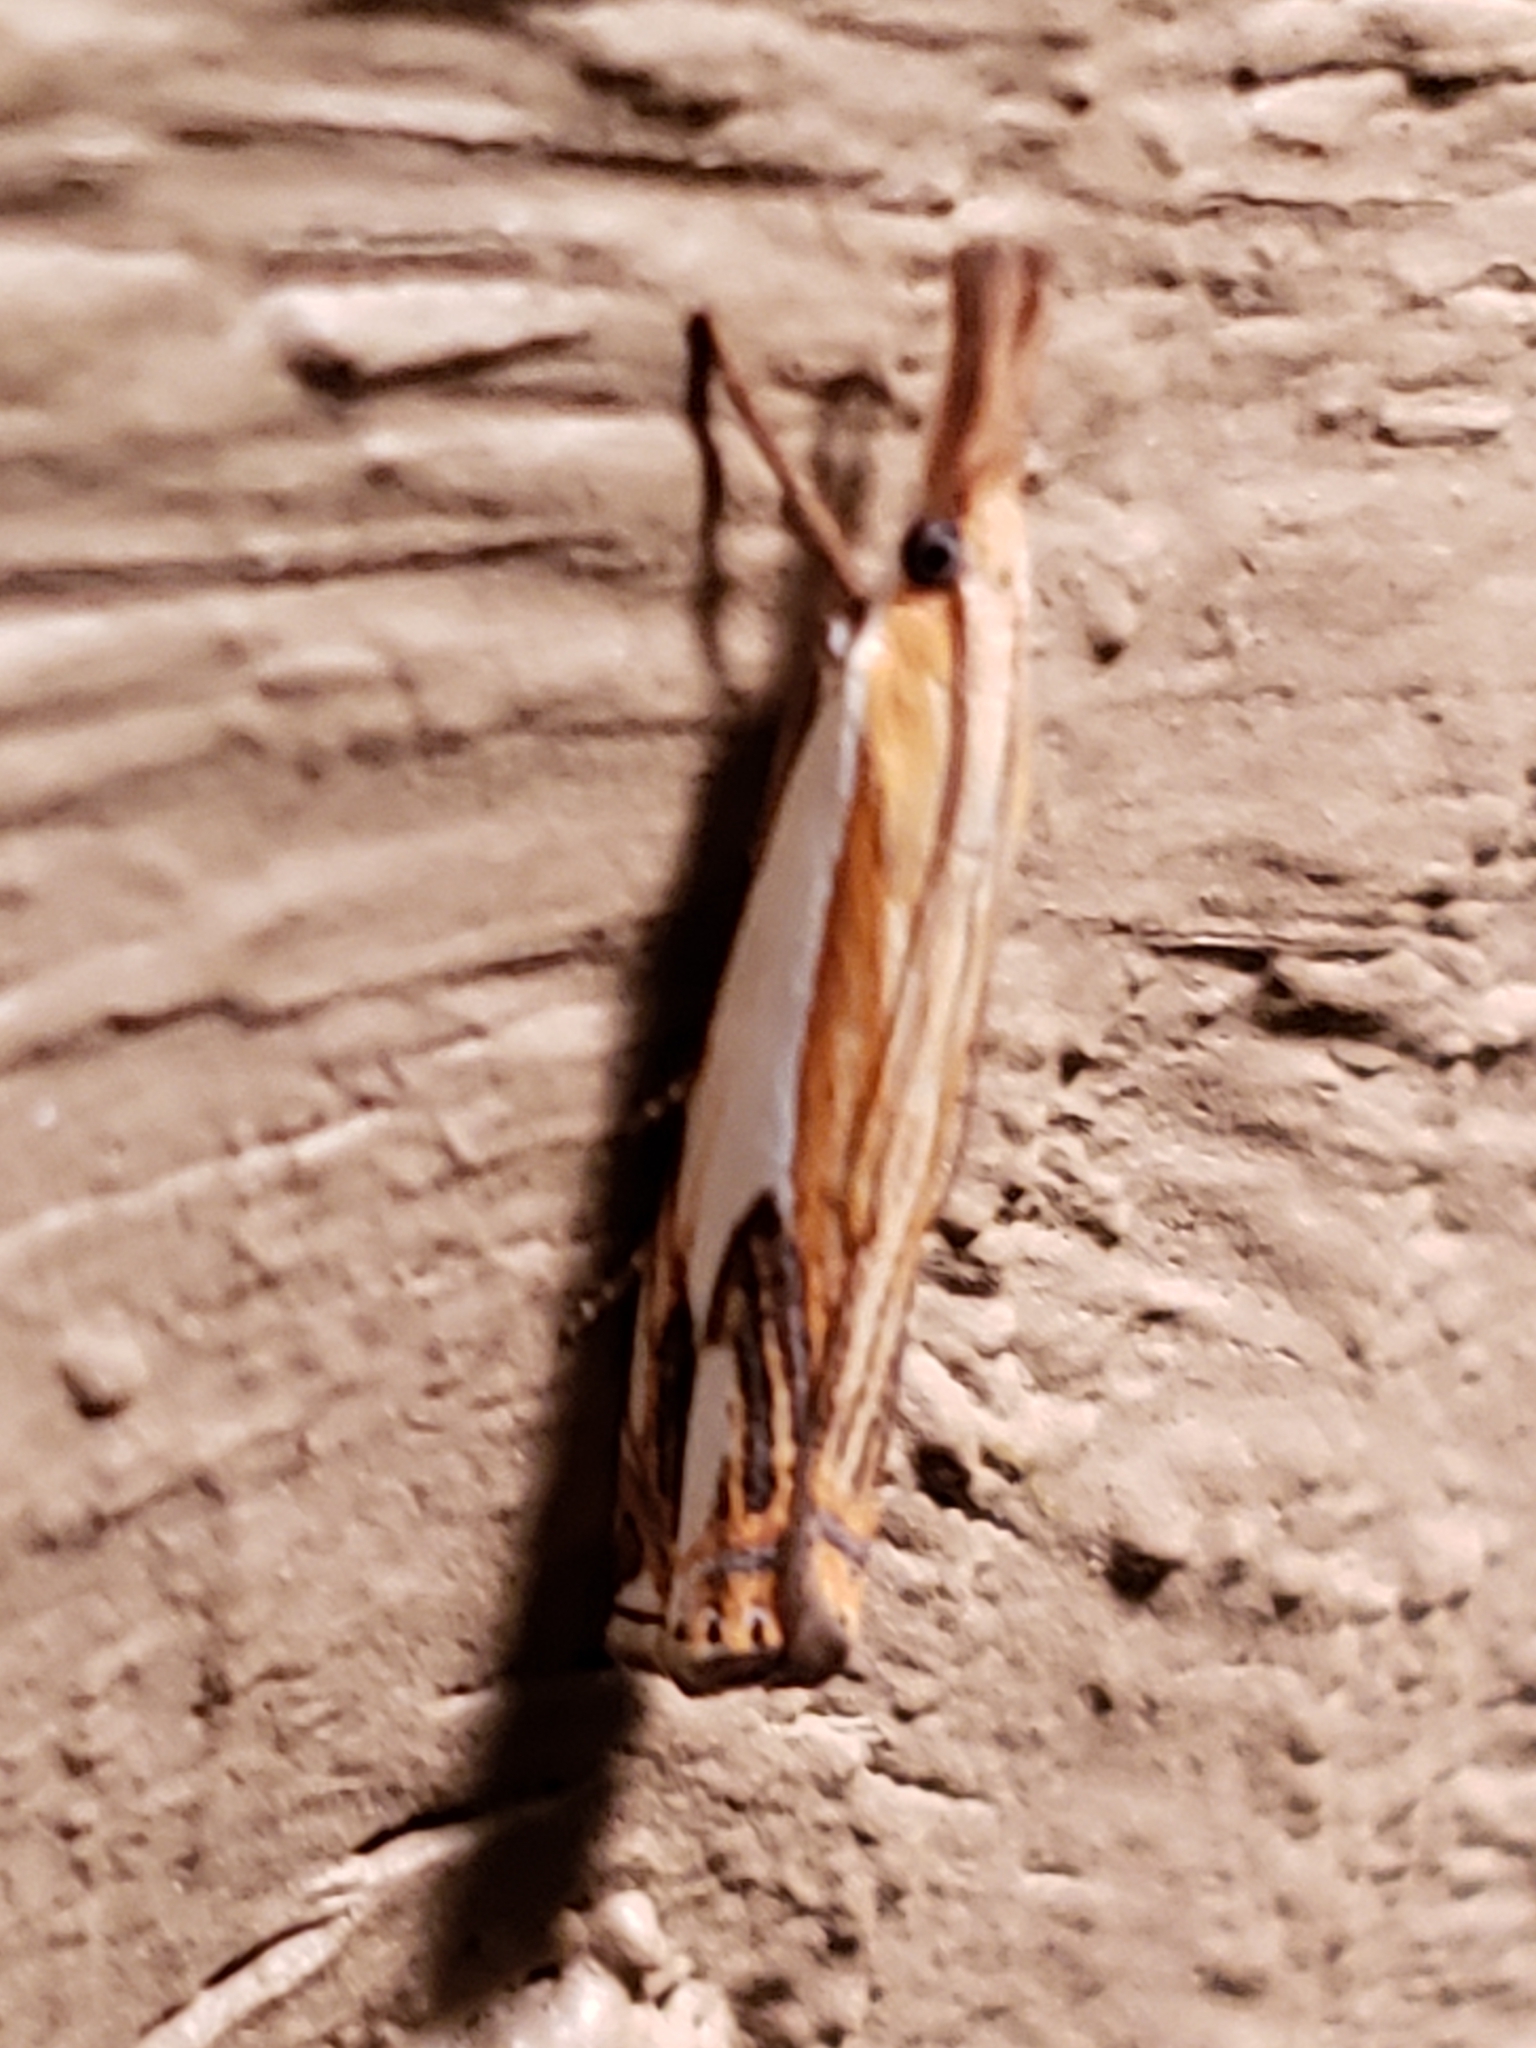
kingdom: Animalia
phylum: Arthropoda
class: Insecta
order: Lepidoptera
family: Crambidae
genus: Crambus
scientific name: Crambus agitatellus
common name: Double-banded grass-veneer
